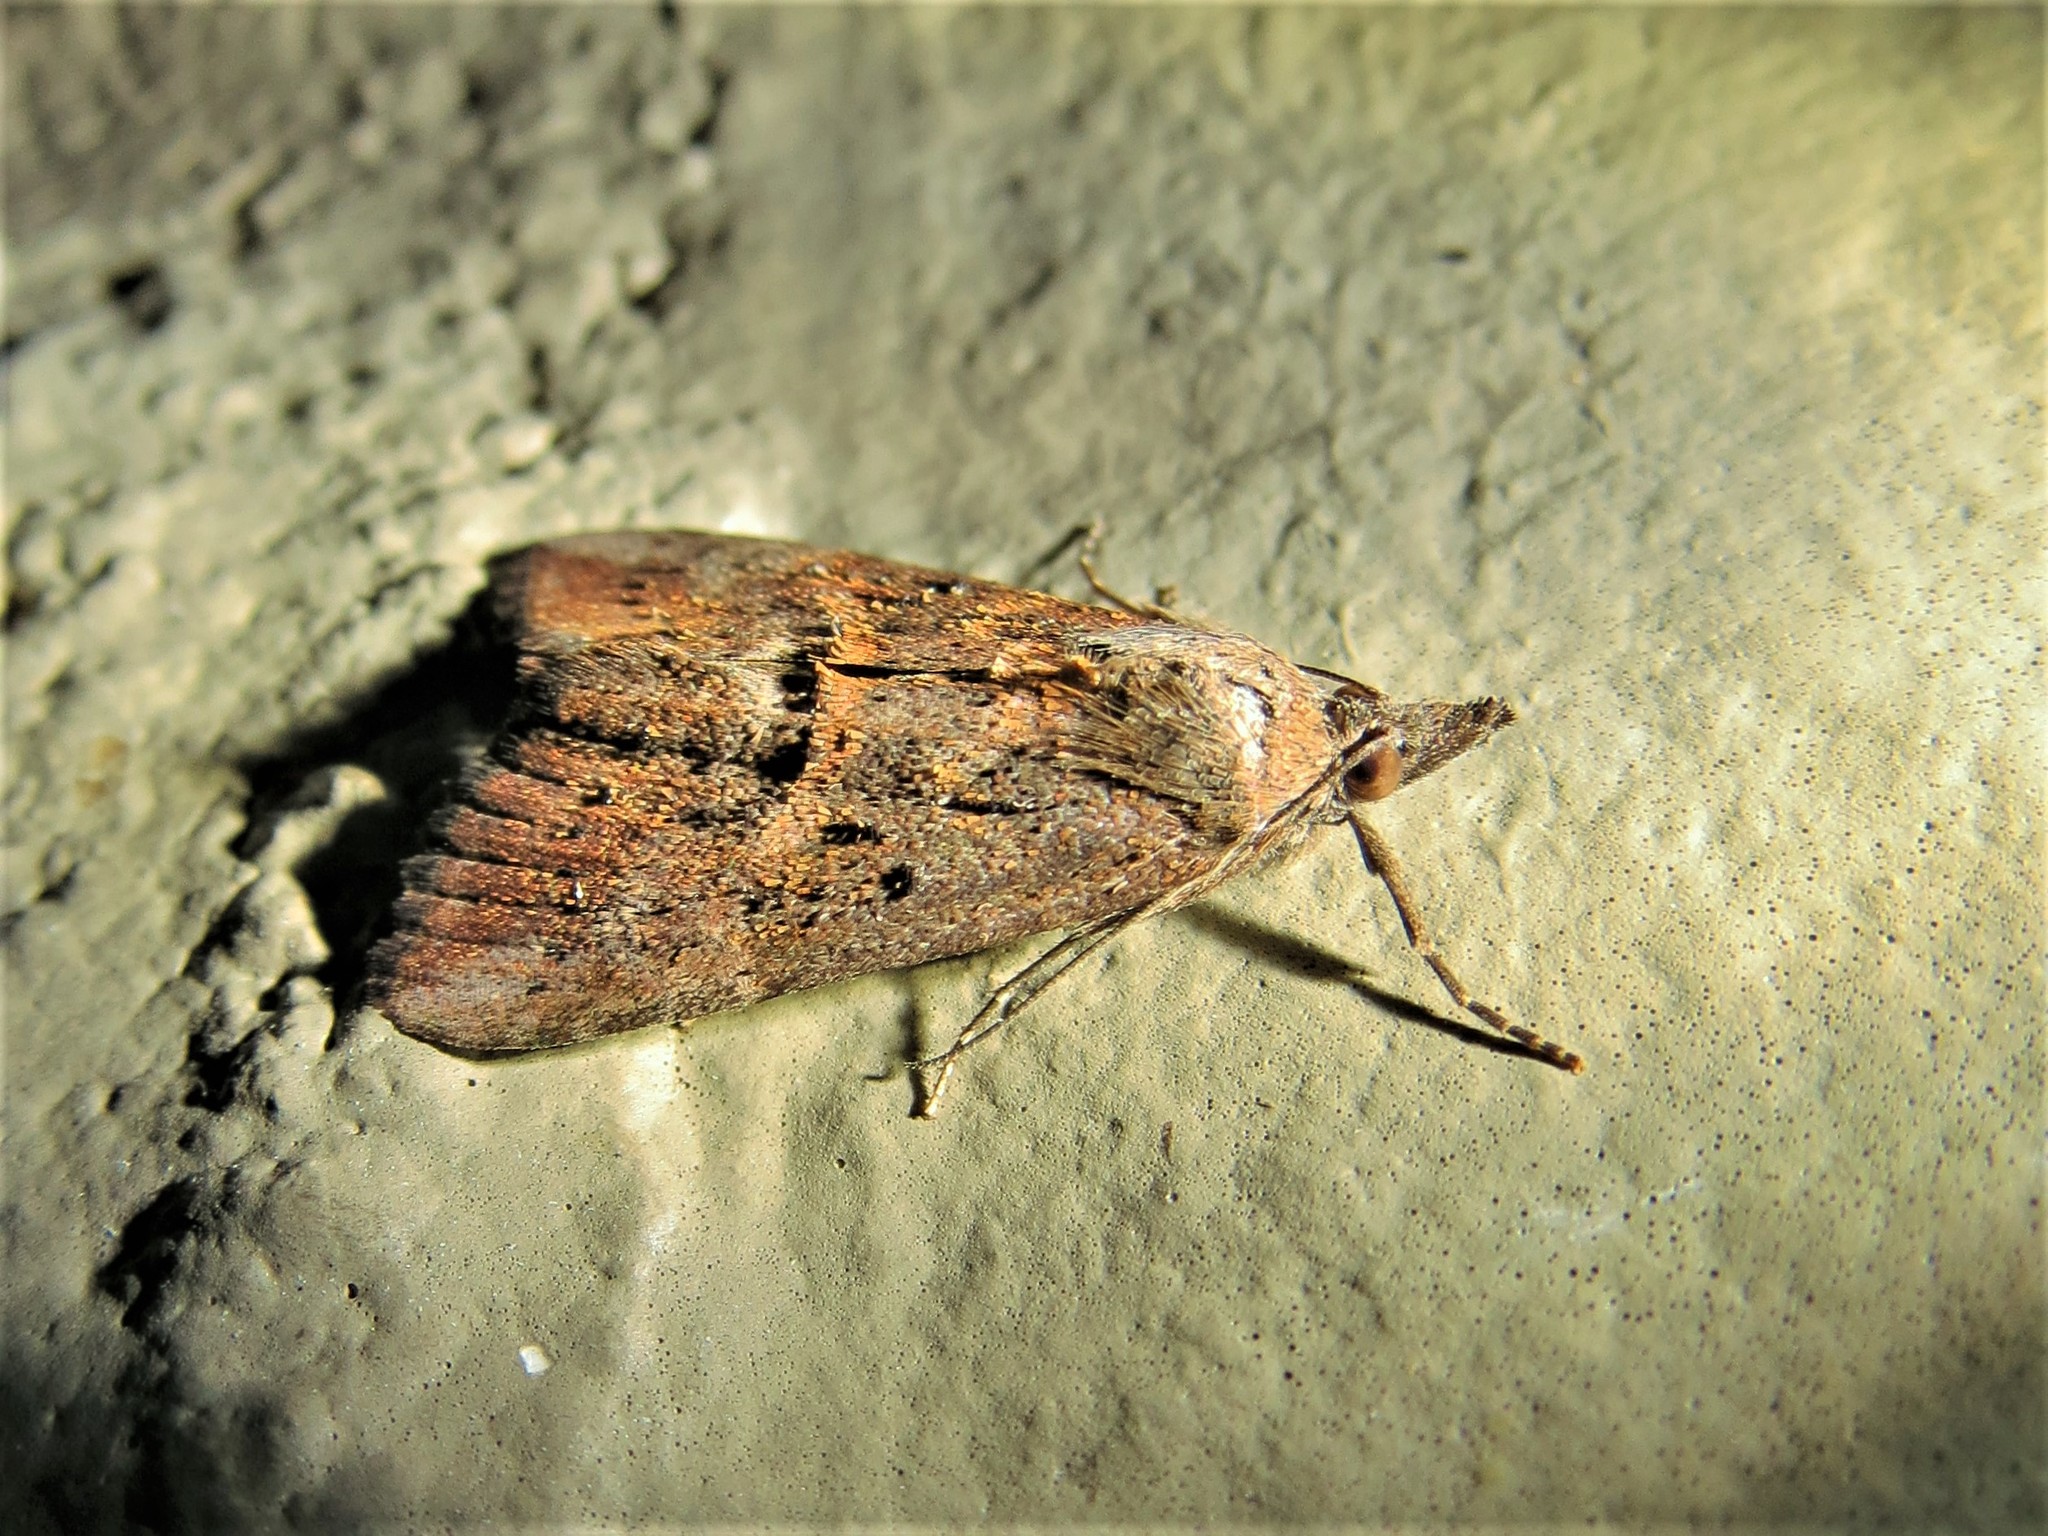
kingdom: Animalia
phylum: Arthropoda
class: Insecta
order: Lepidoptera
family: Erebidae
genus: Hypena
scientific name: Hypena scabra
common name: Green cloverworm
